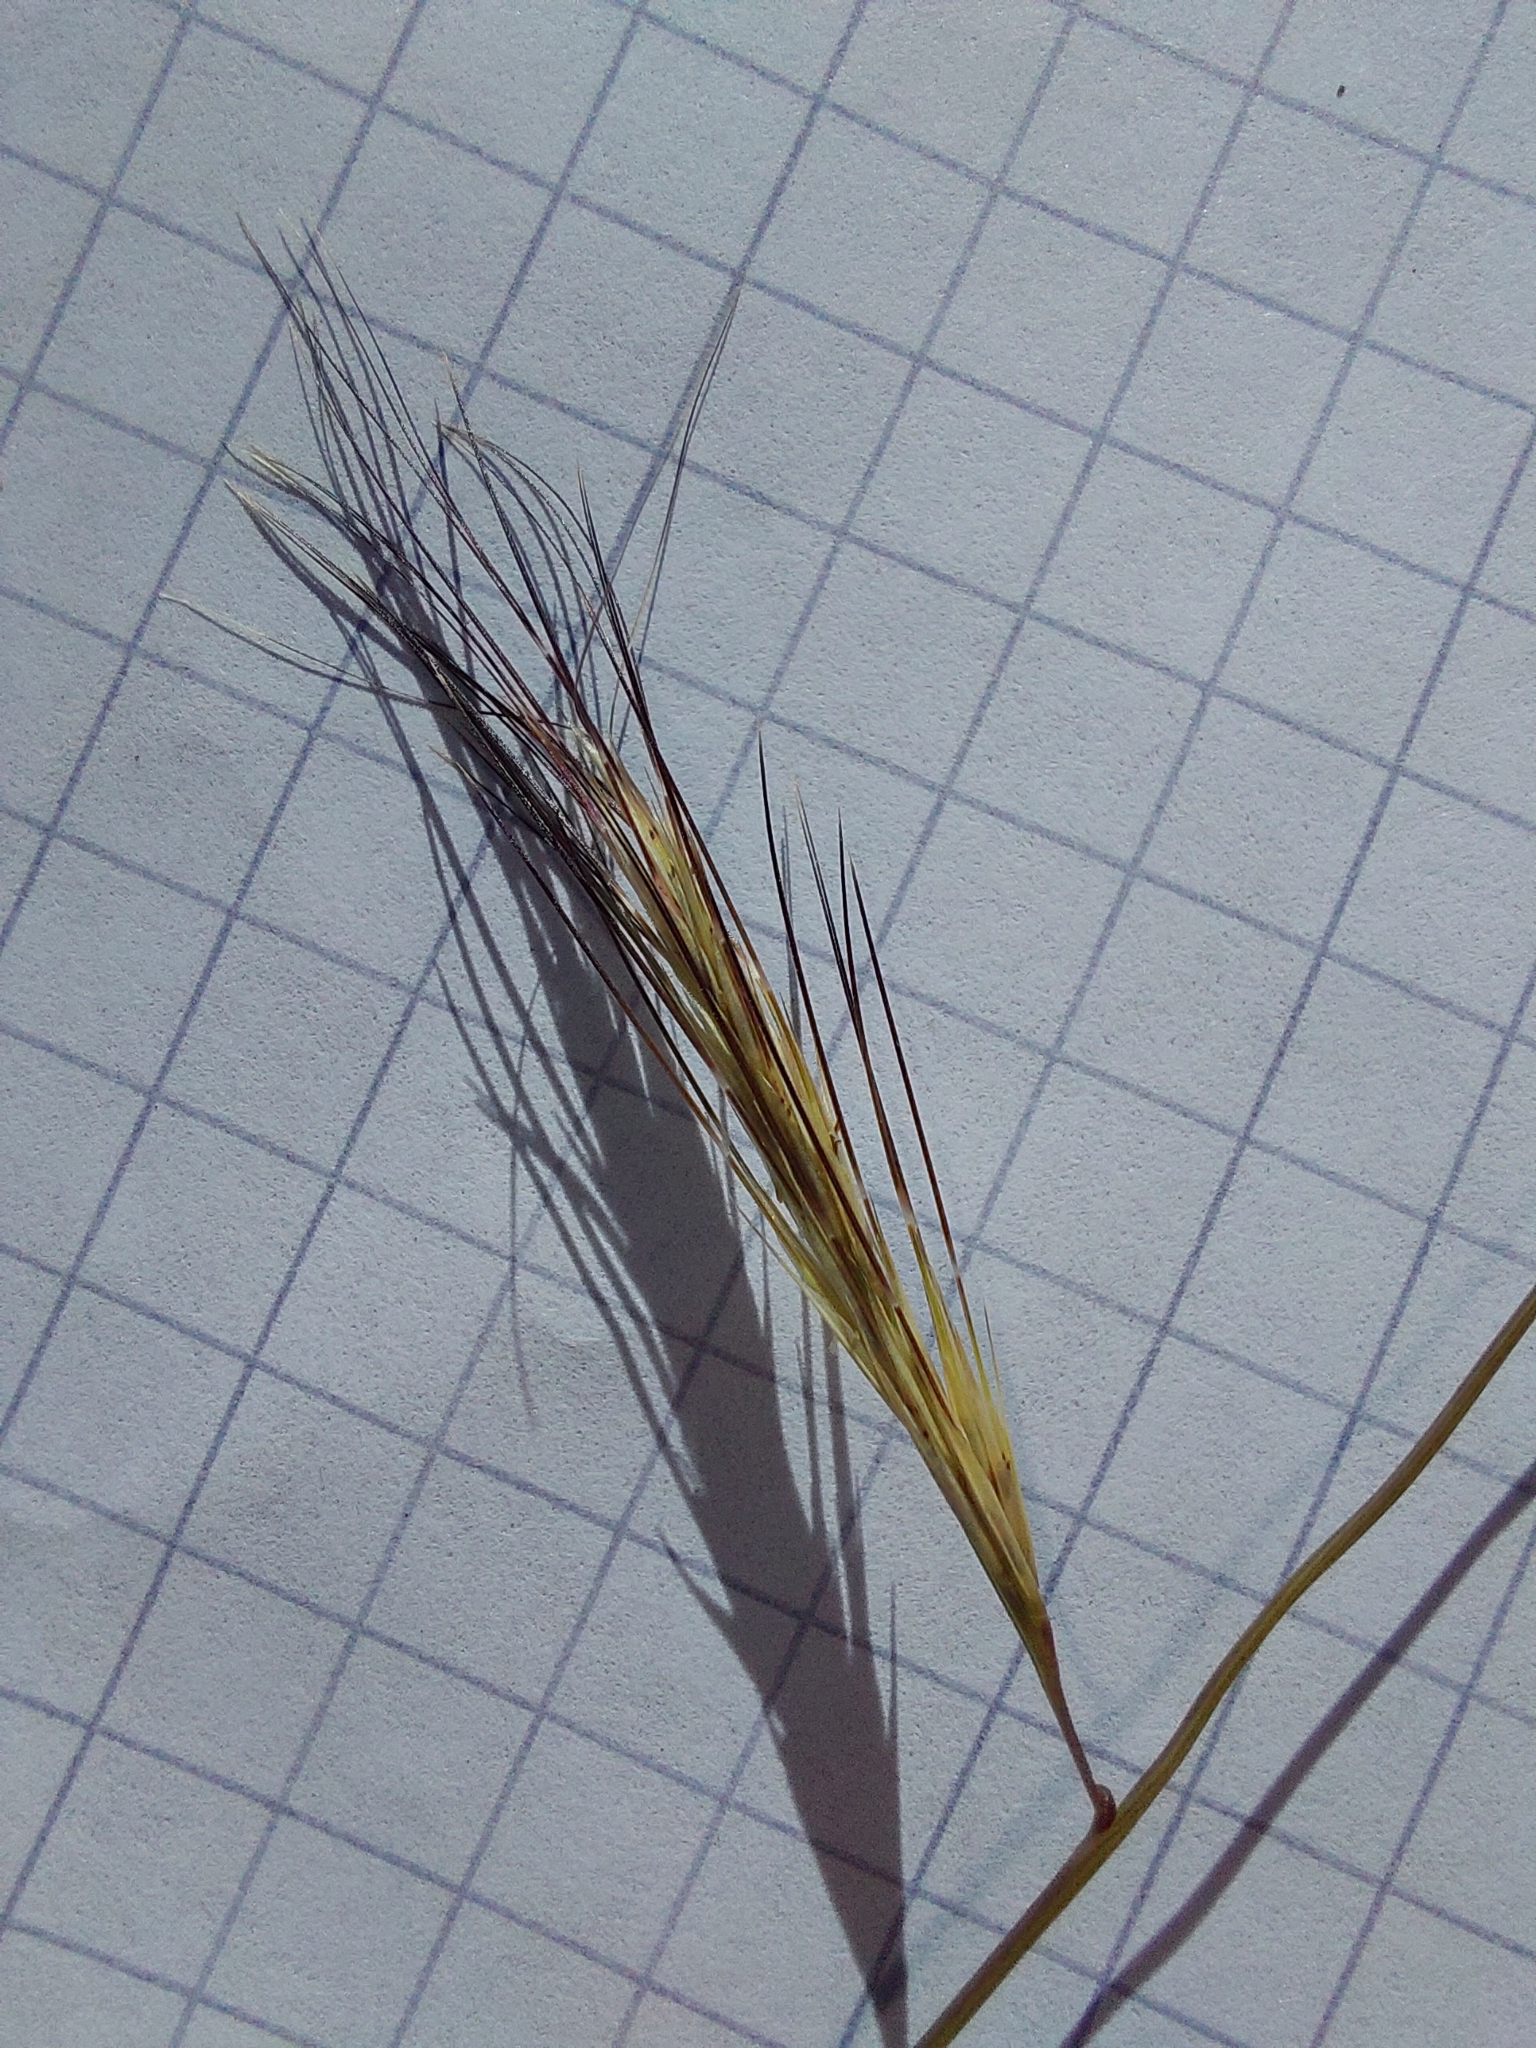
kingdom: Plantae
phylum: Tracheophyta
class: Liliopsida
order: Poales
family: Poaceae
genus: Aristida
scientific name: Aristida barbicollis
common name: Spreading prickle grass
